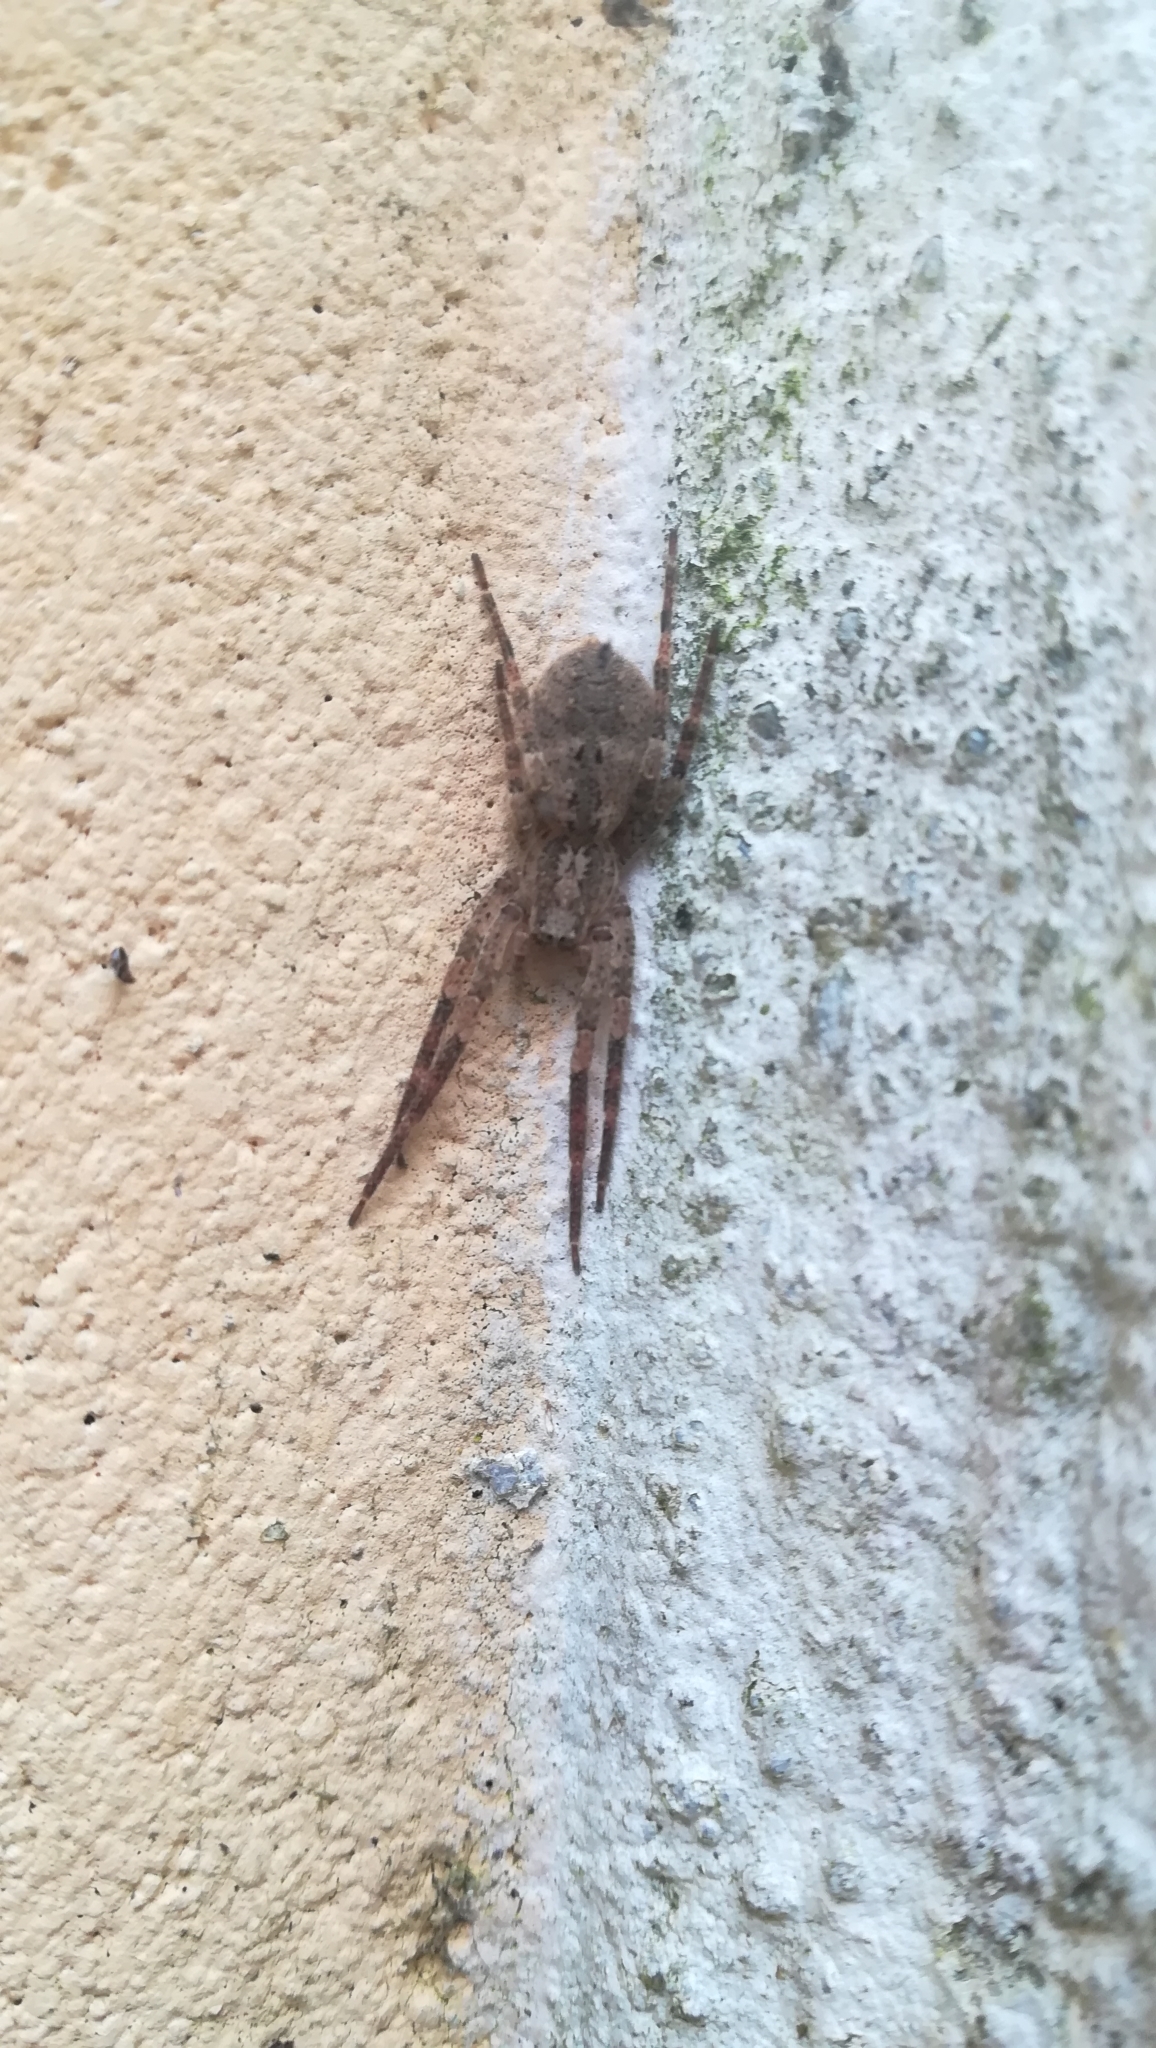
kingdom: Animalia
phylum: Arthropoda
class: Arachnida
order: Araneae
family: Zoropsidae
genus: Zoropsis
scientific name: Zoropsis spinimana
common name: Zoropsid spider
